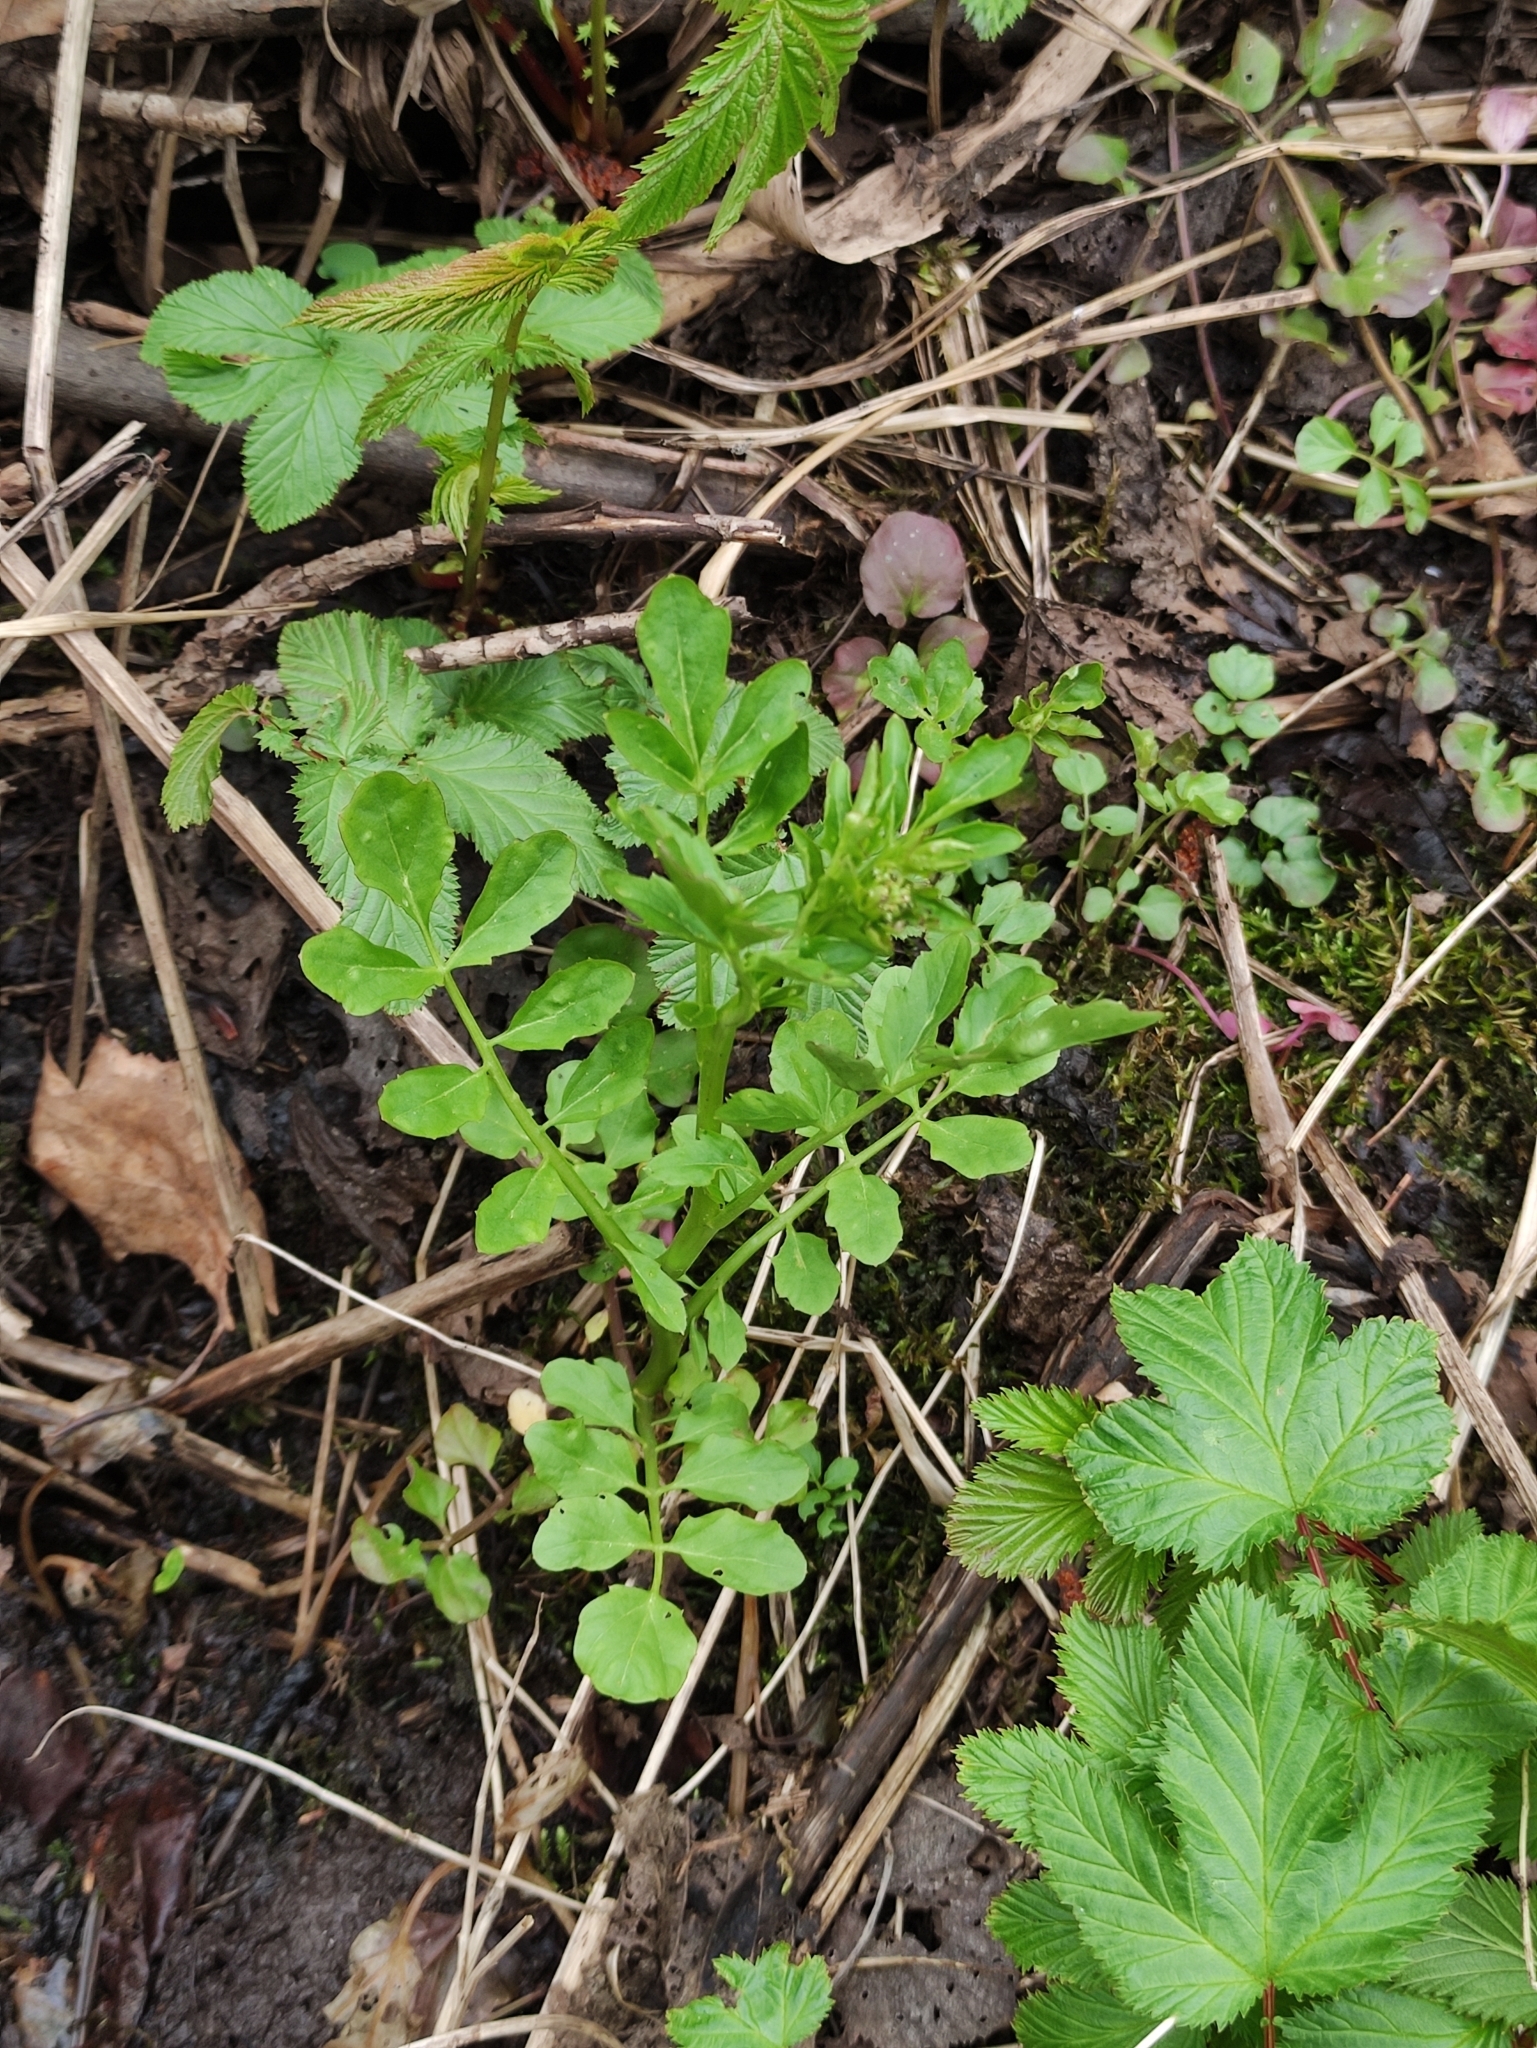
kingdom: Plantae
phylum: Tracheophyta
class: Magnoliopsida
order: Brassicales
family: Brassicaceae
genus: Cardamine
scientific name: Cardamine amara
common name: Large bitter-cress
